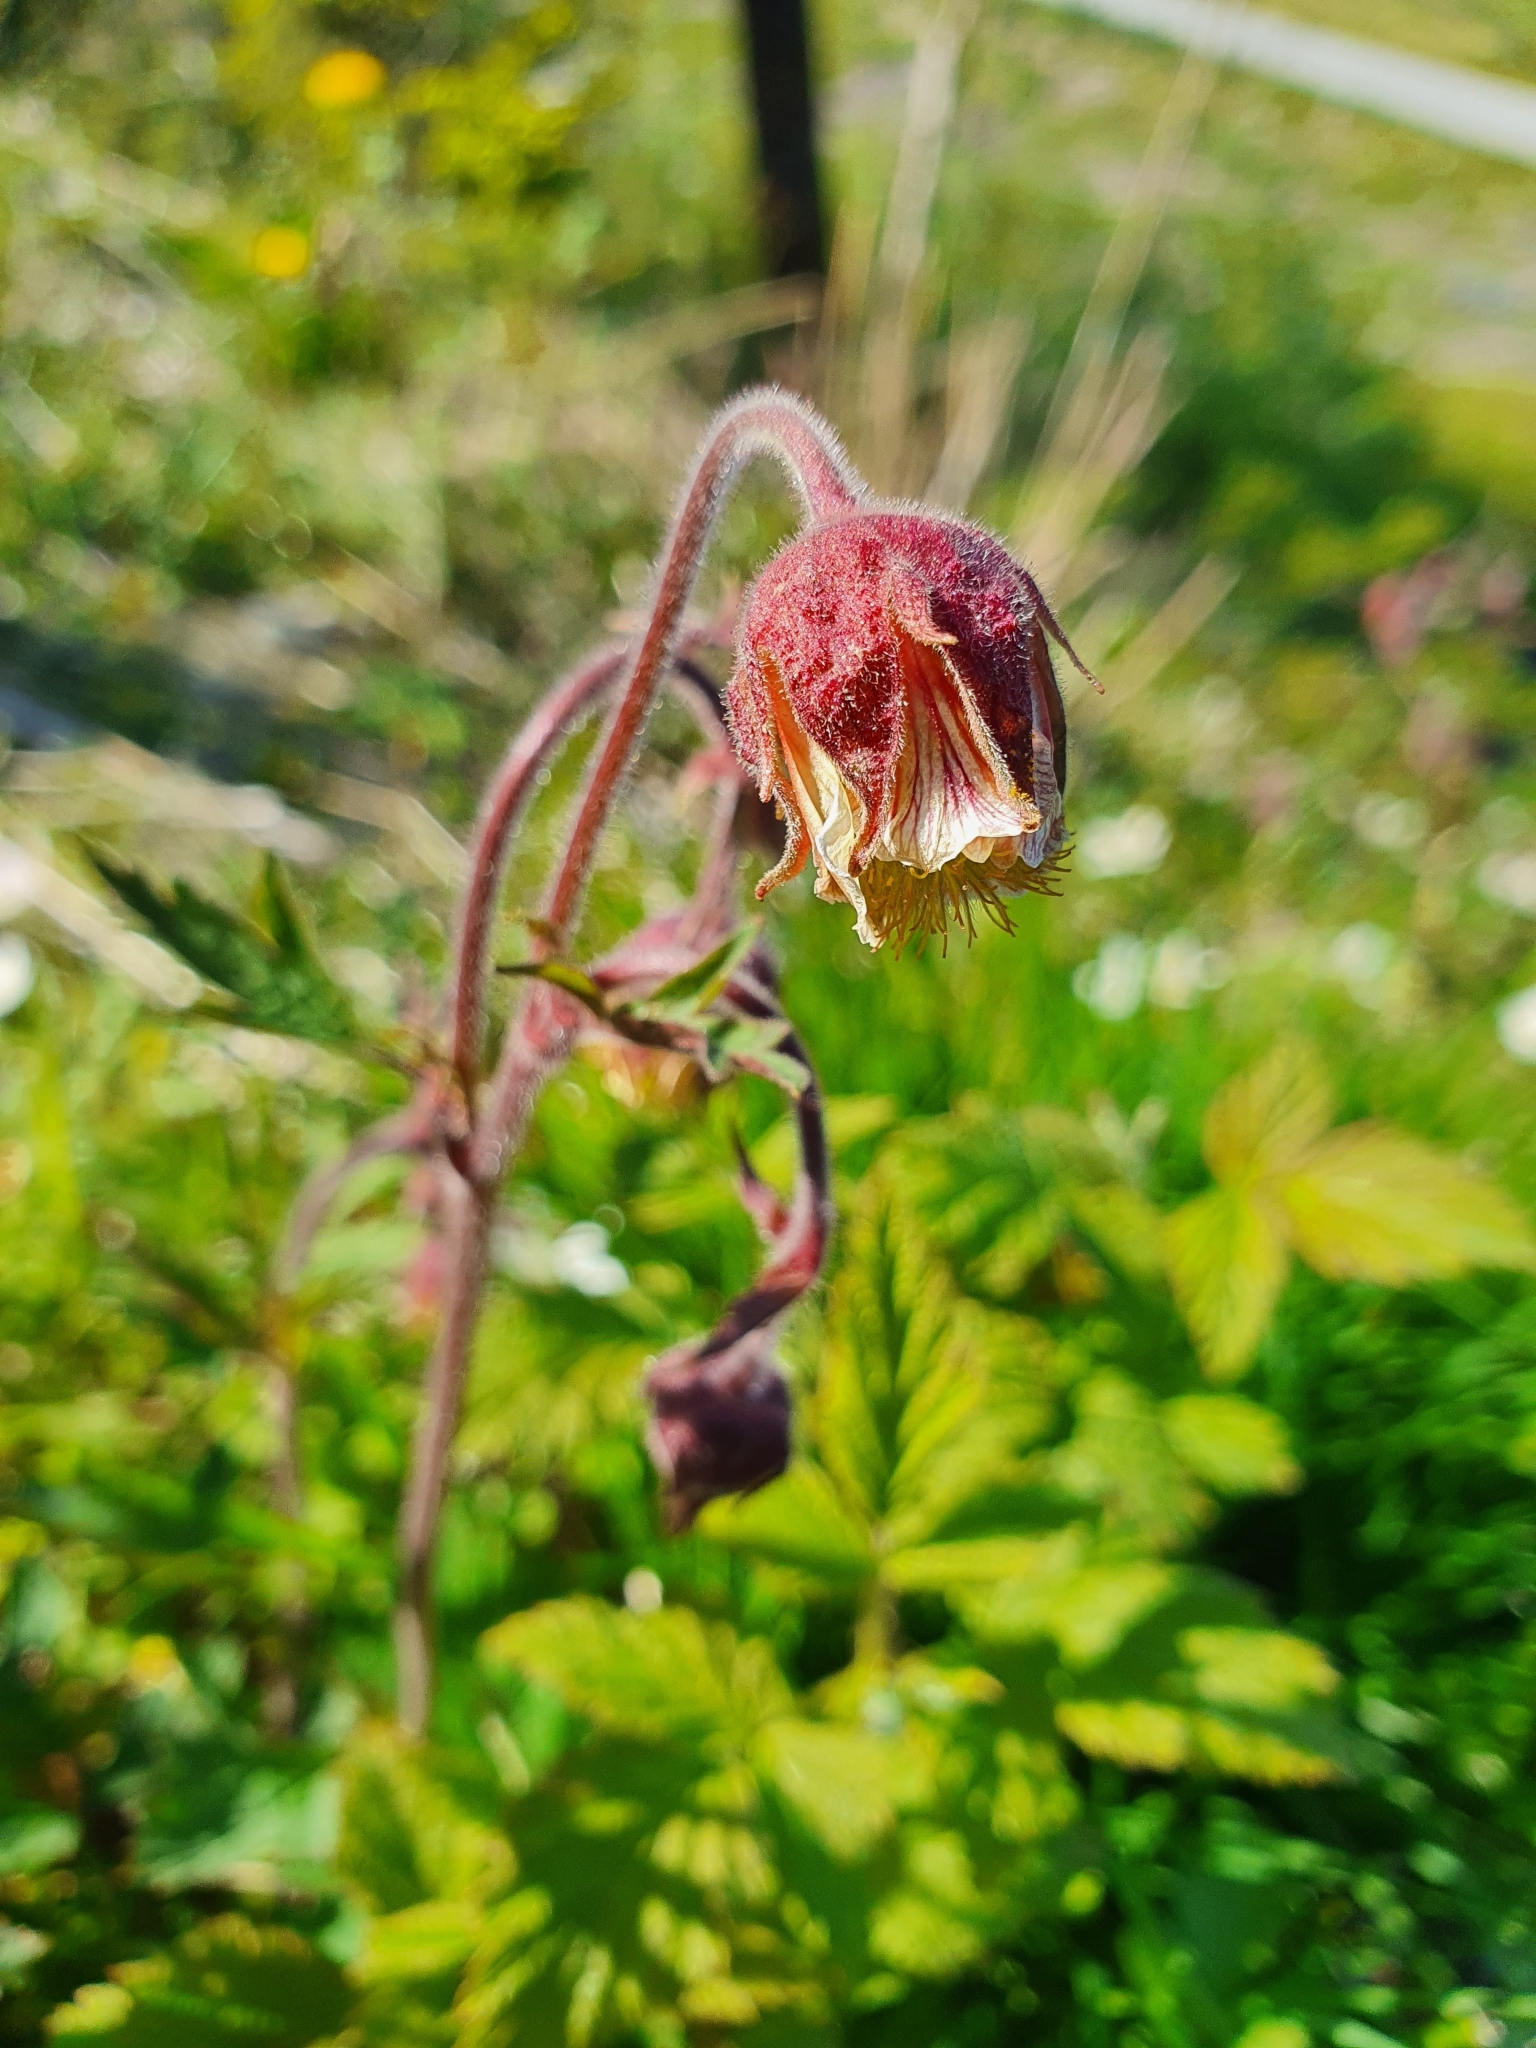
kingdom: Plantae
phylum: Tracheophyta
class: Magnoliopsida
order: Rosales
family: Rosaceae
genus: Geum
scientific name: Geum rivale
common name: Water avens
